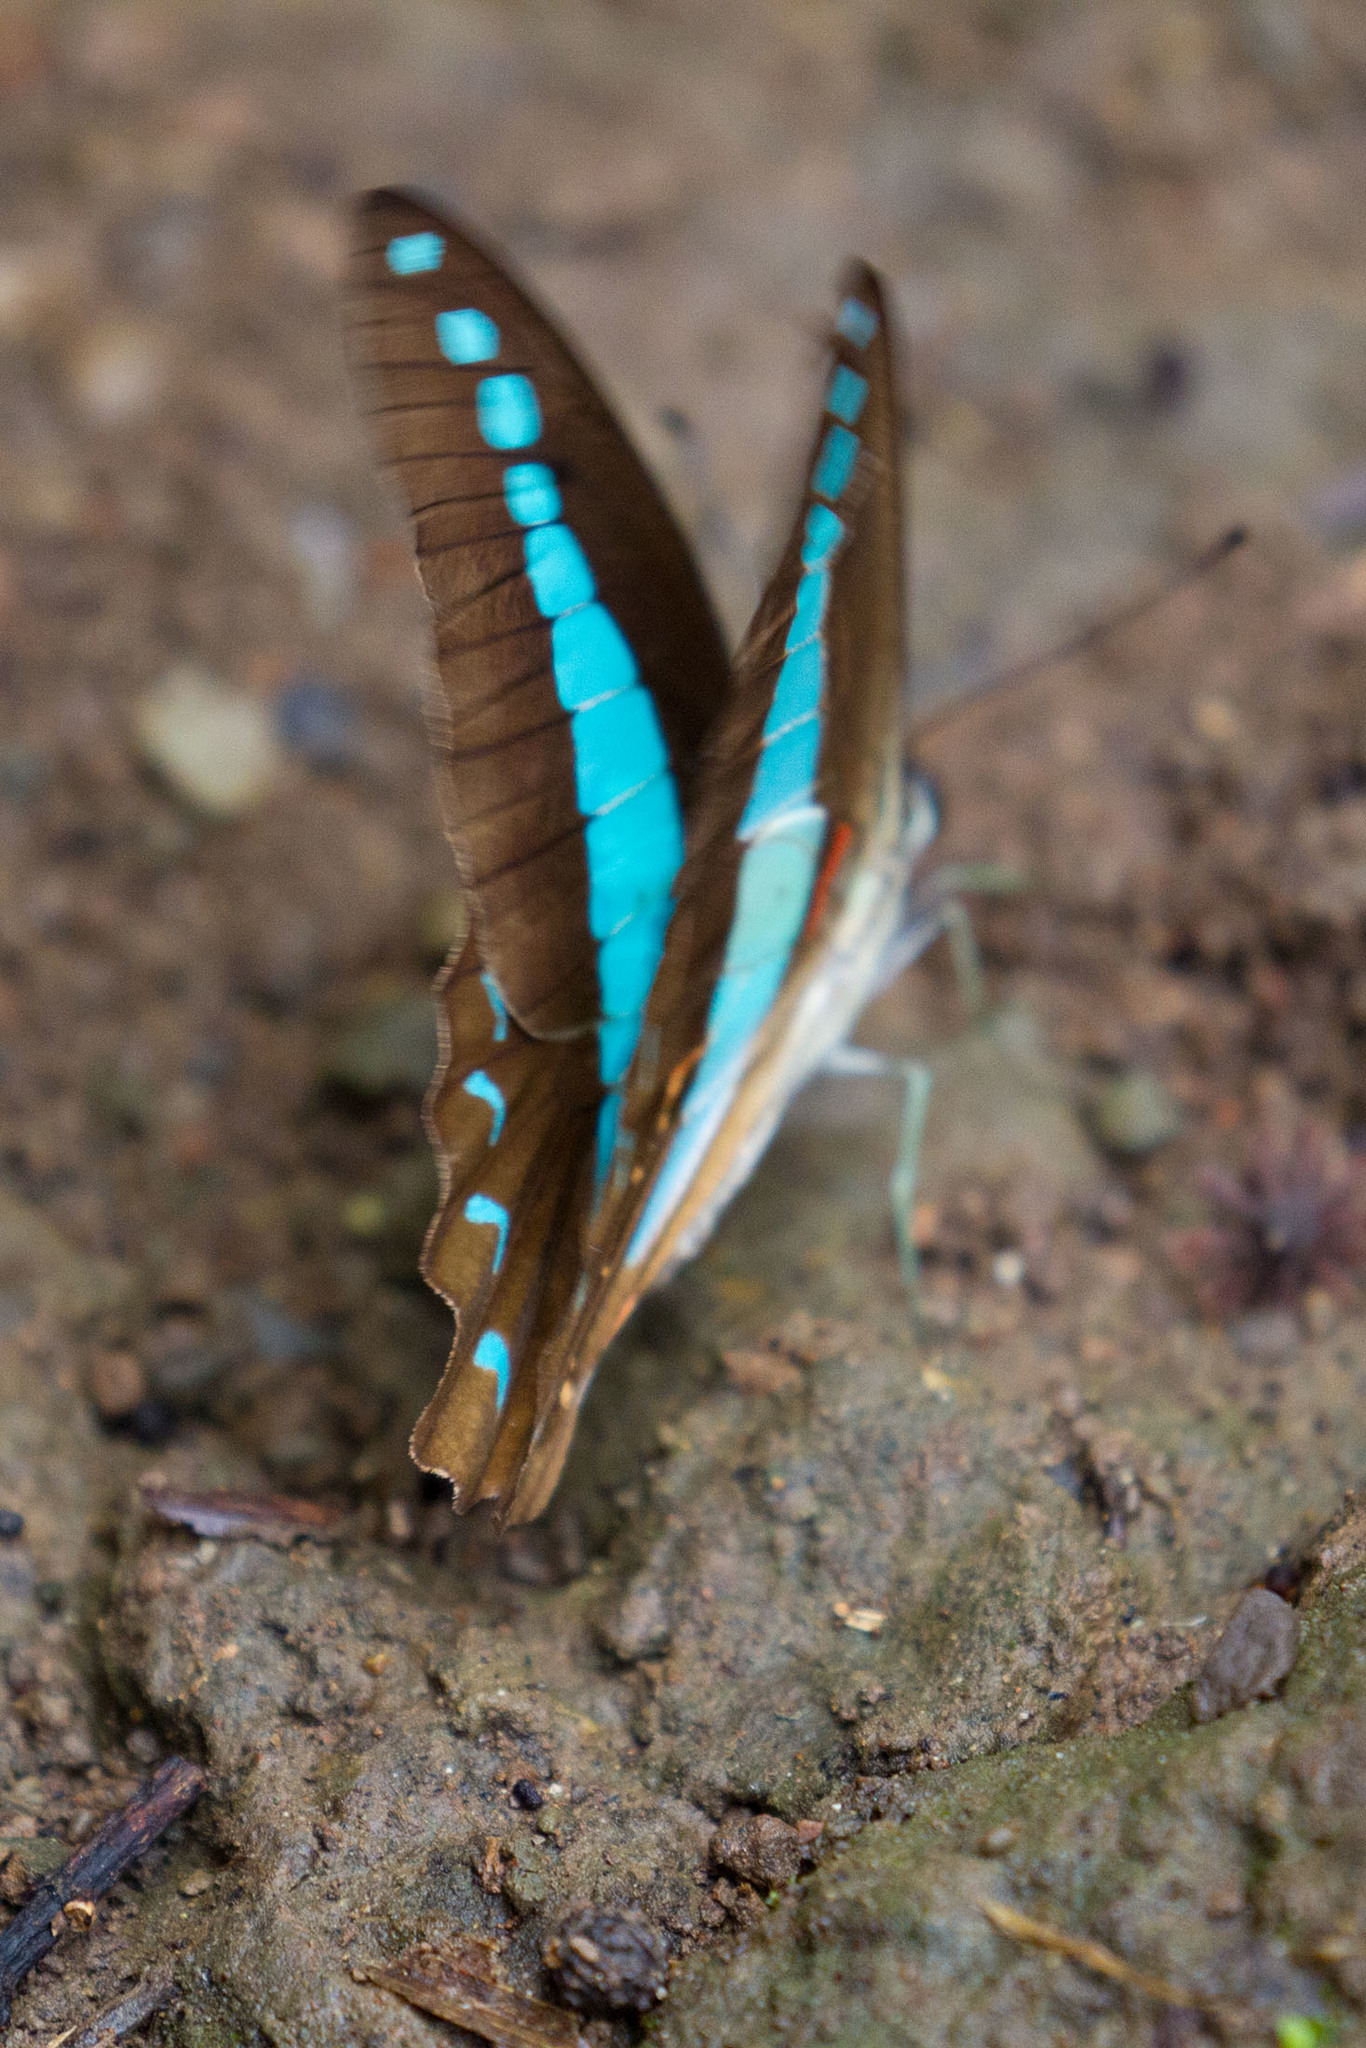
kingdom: Animalia
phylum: Arthropoda
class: Insecta
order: Lepidoptera
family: Papilionidae
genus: Graphium
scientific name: Graphium
